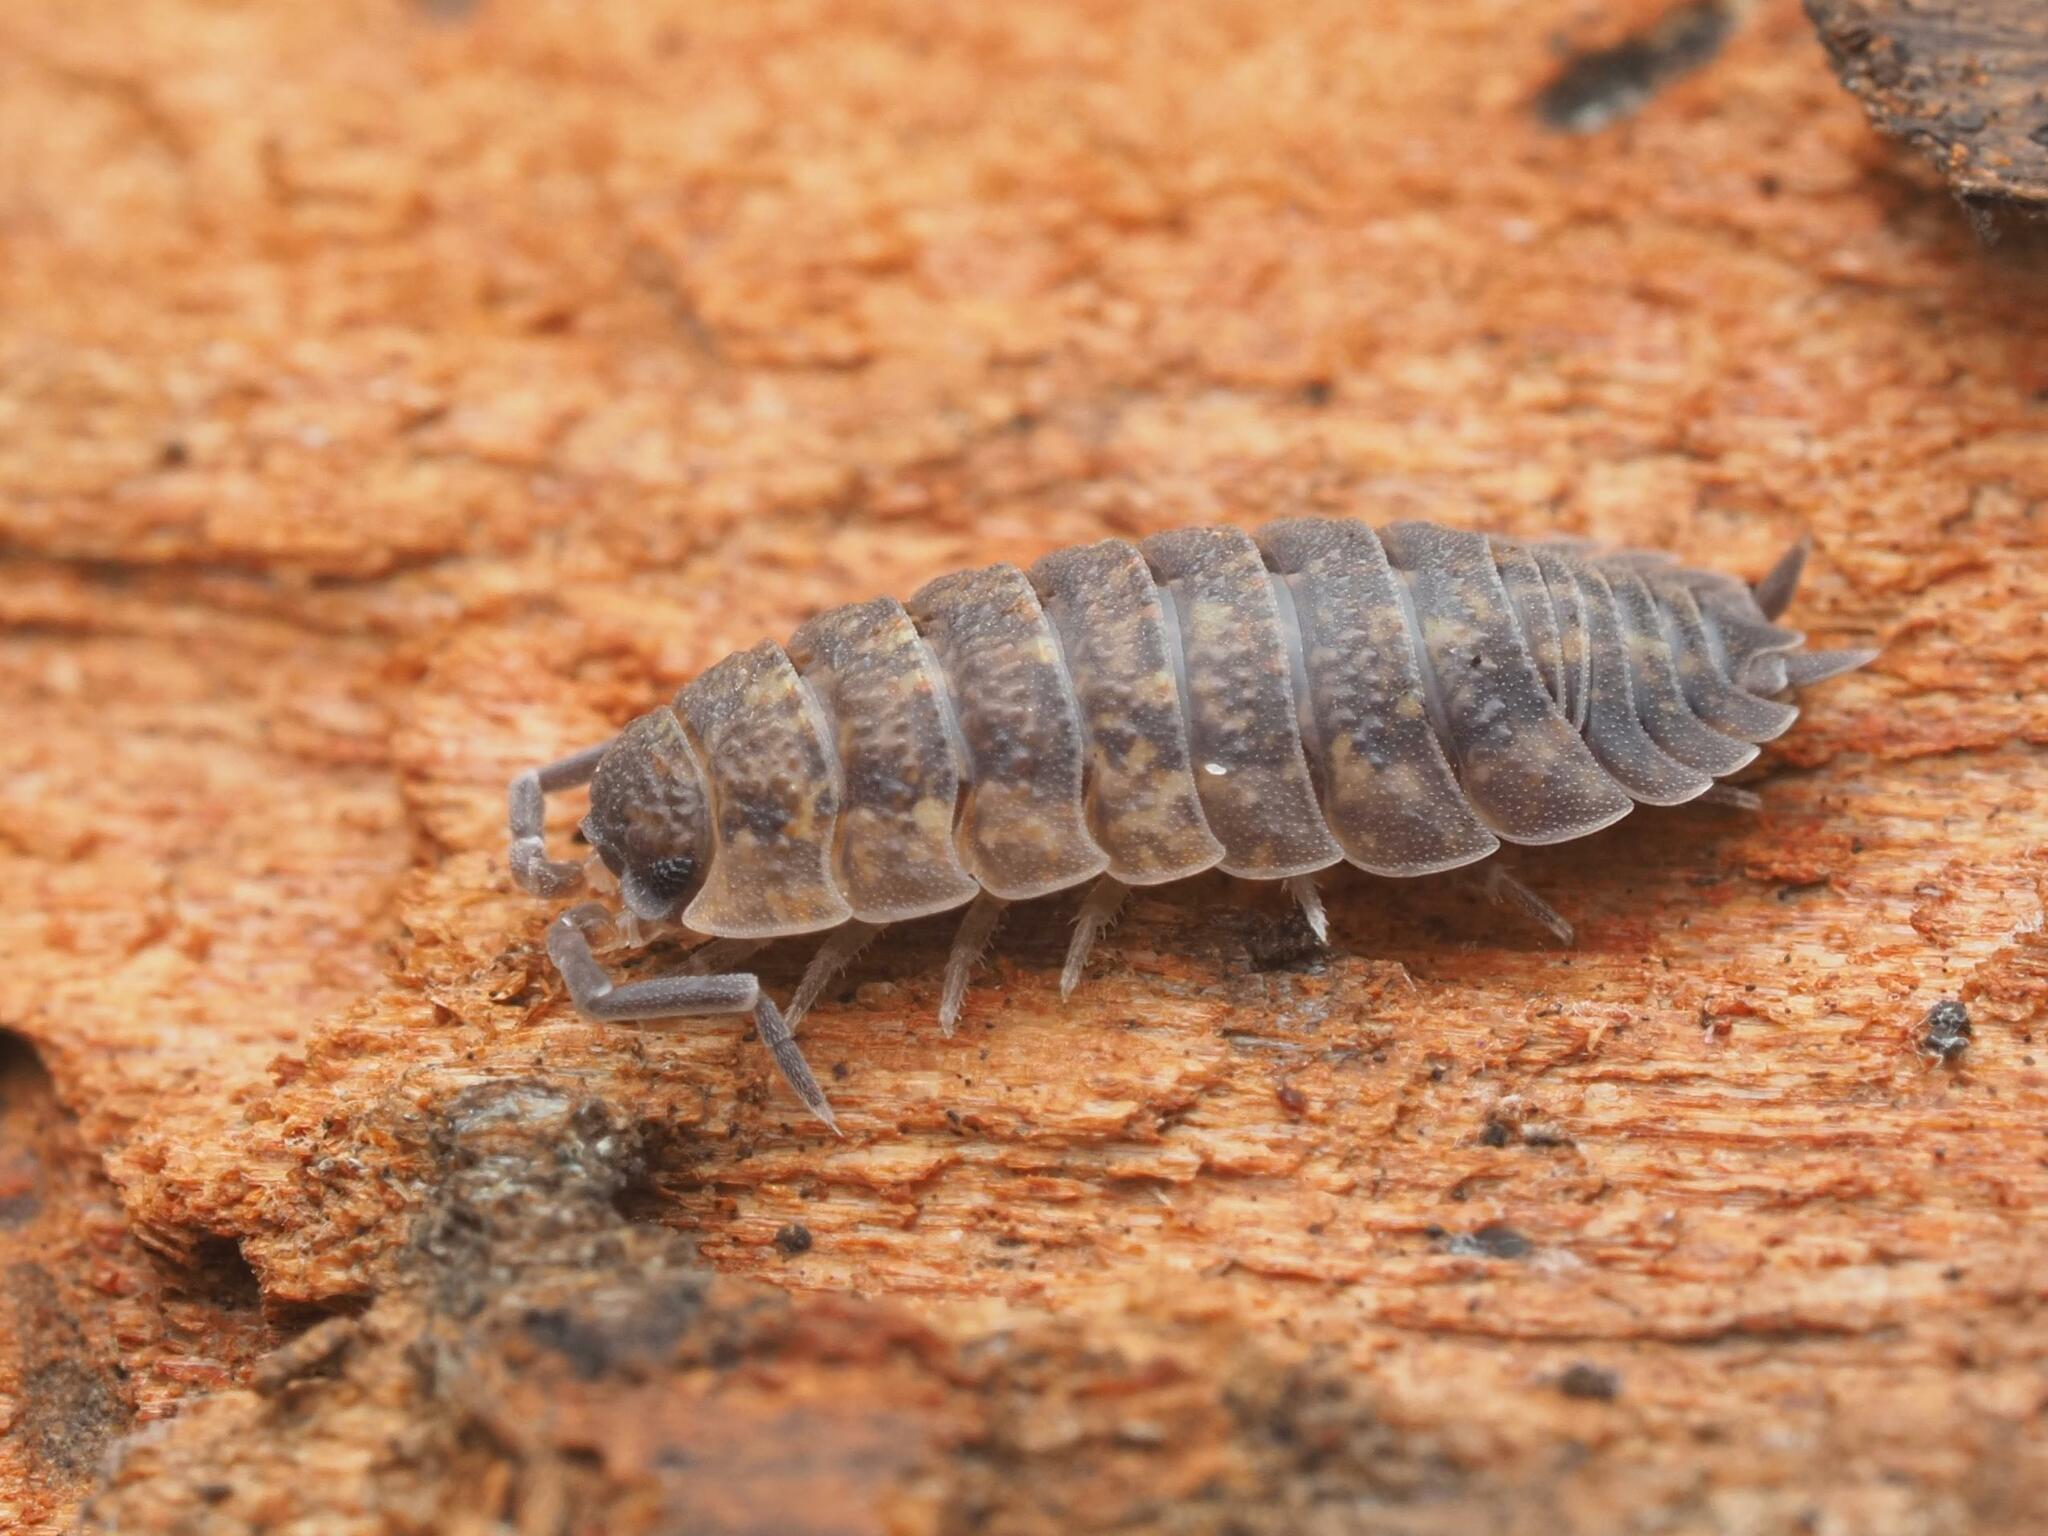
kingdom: Animalia
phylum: Arthropoda
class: Malacostraca
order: Isopoda
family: Porcellionidae
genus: Porcellio
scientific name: Porcellio scaber
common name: Common rough woodlouse
